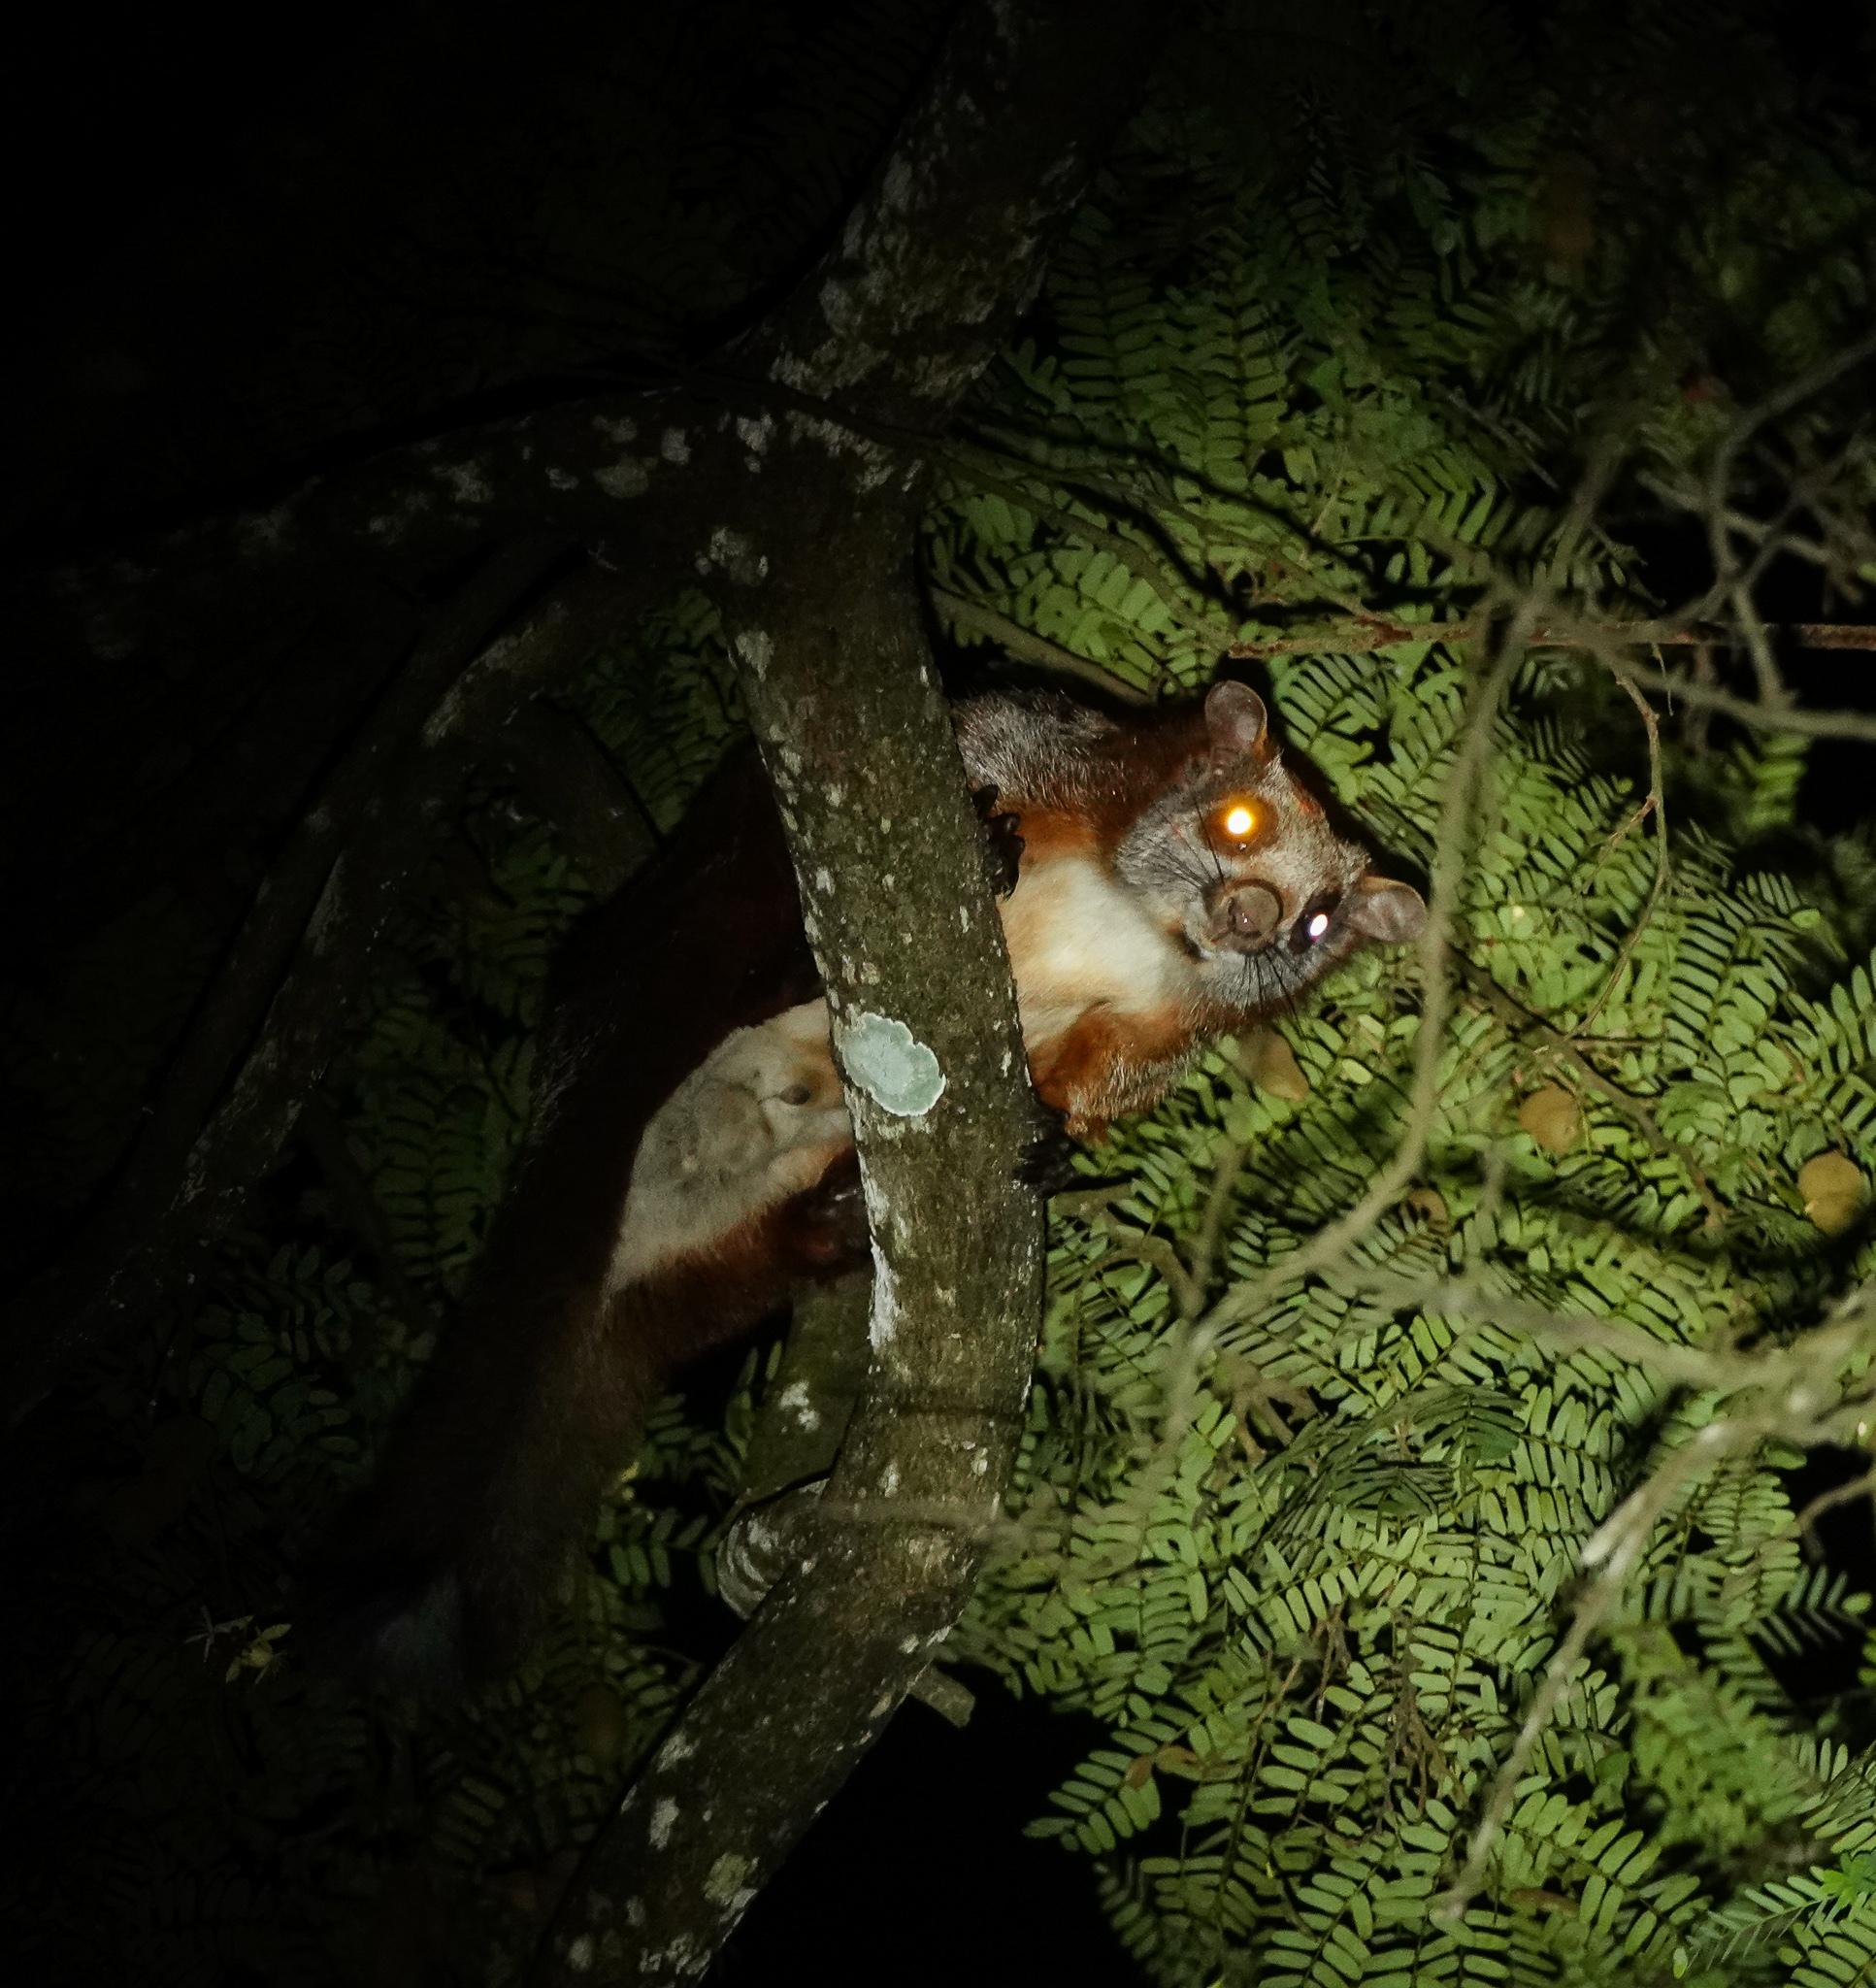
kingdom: Animalia
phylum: Chordata
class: Mammalia
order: Rodentia
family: Sciuridae
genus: Petaurista
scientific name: Petaurista alborufus
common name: Red and white giant flying squirrel
